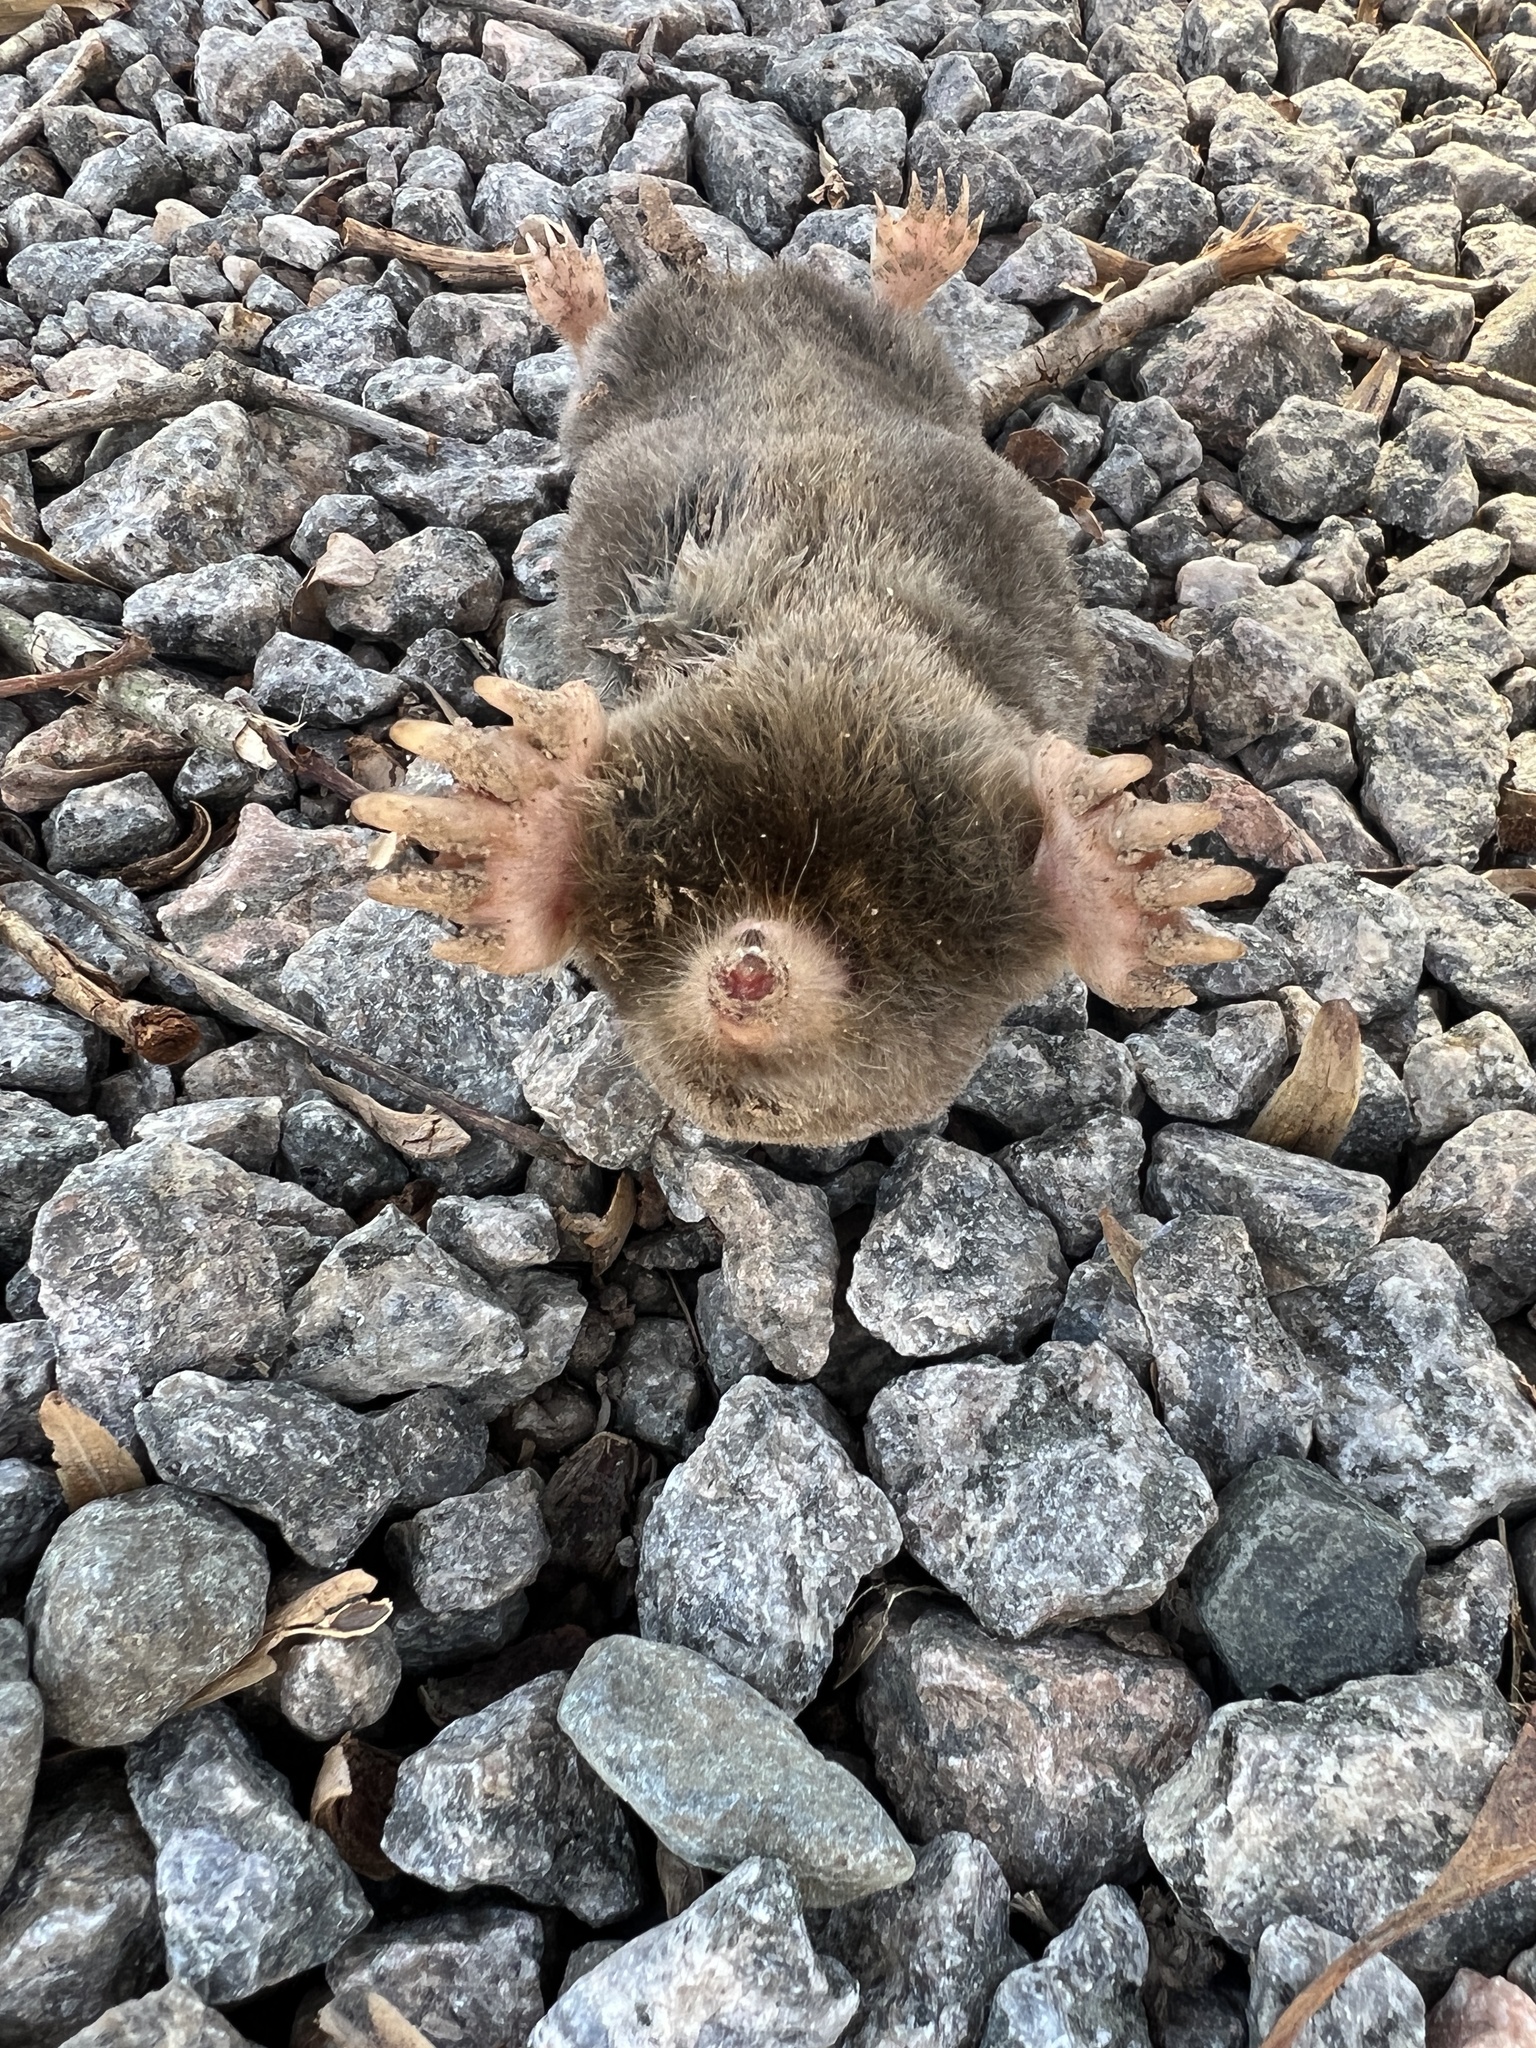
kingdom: Animalia
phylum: Chordata
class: Mammalia
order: Soricomorpha
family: Talpidae
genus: Scalopus
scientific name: Scalopus aquaticus
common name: Eastern mole
